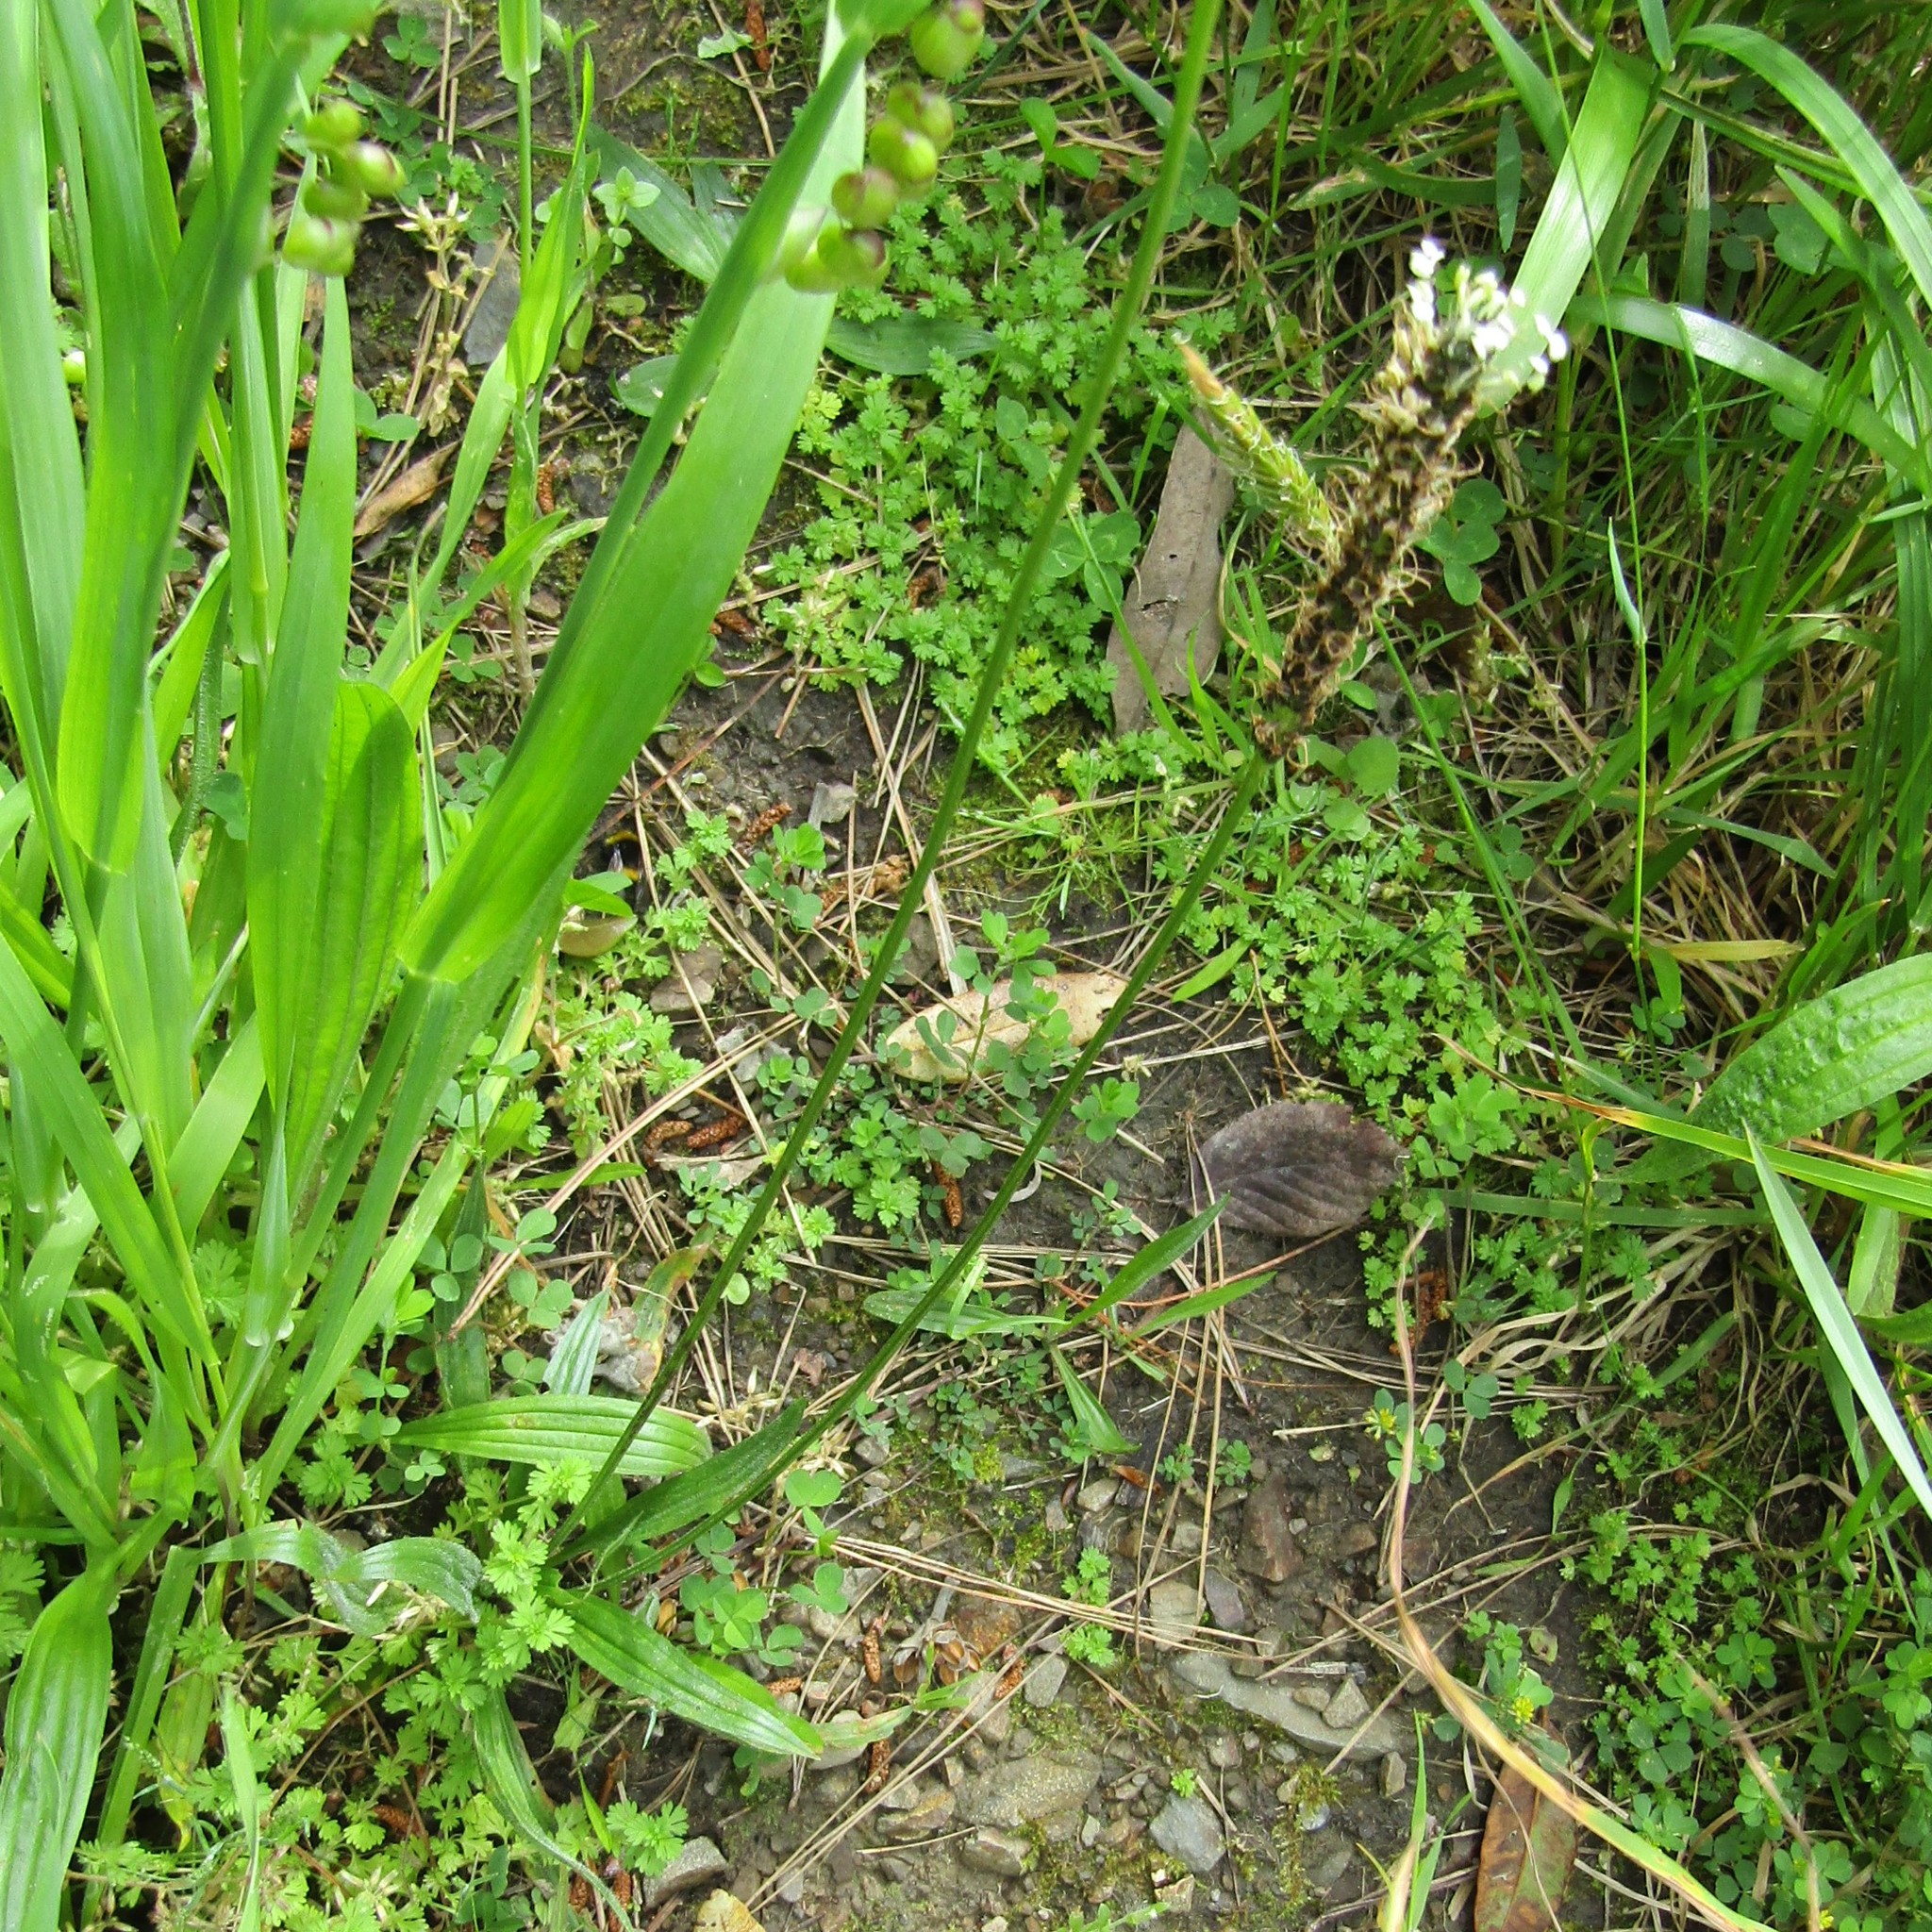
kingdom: Plantae
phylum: Tracheophyta
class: Magnoliopsida
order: Lamiales
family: Plantaginaceae
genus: Plantago
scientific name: Plantago lanceolata
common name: Ribwort plantain
